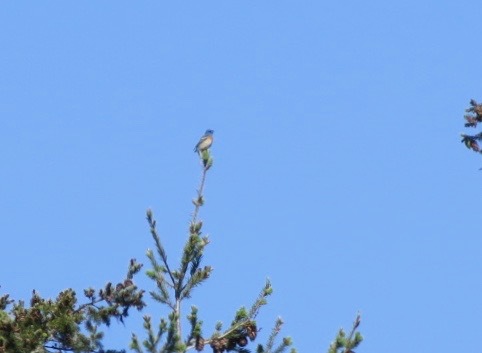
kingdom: Animalia
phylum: Chordata
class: Aves
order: Passeriformes
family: Cardinalidae
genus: Passerina
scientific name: Passerina amoena
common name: Lazuli bunting
